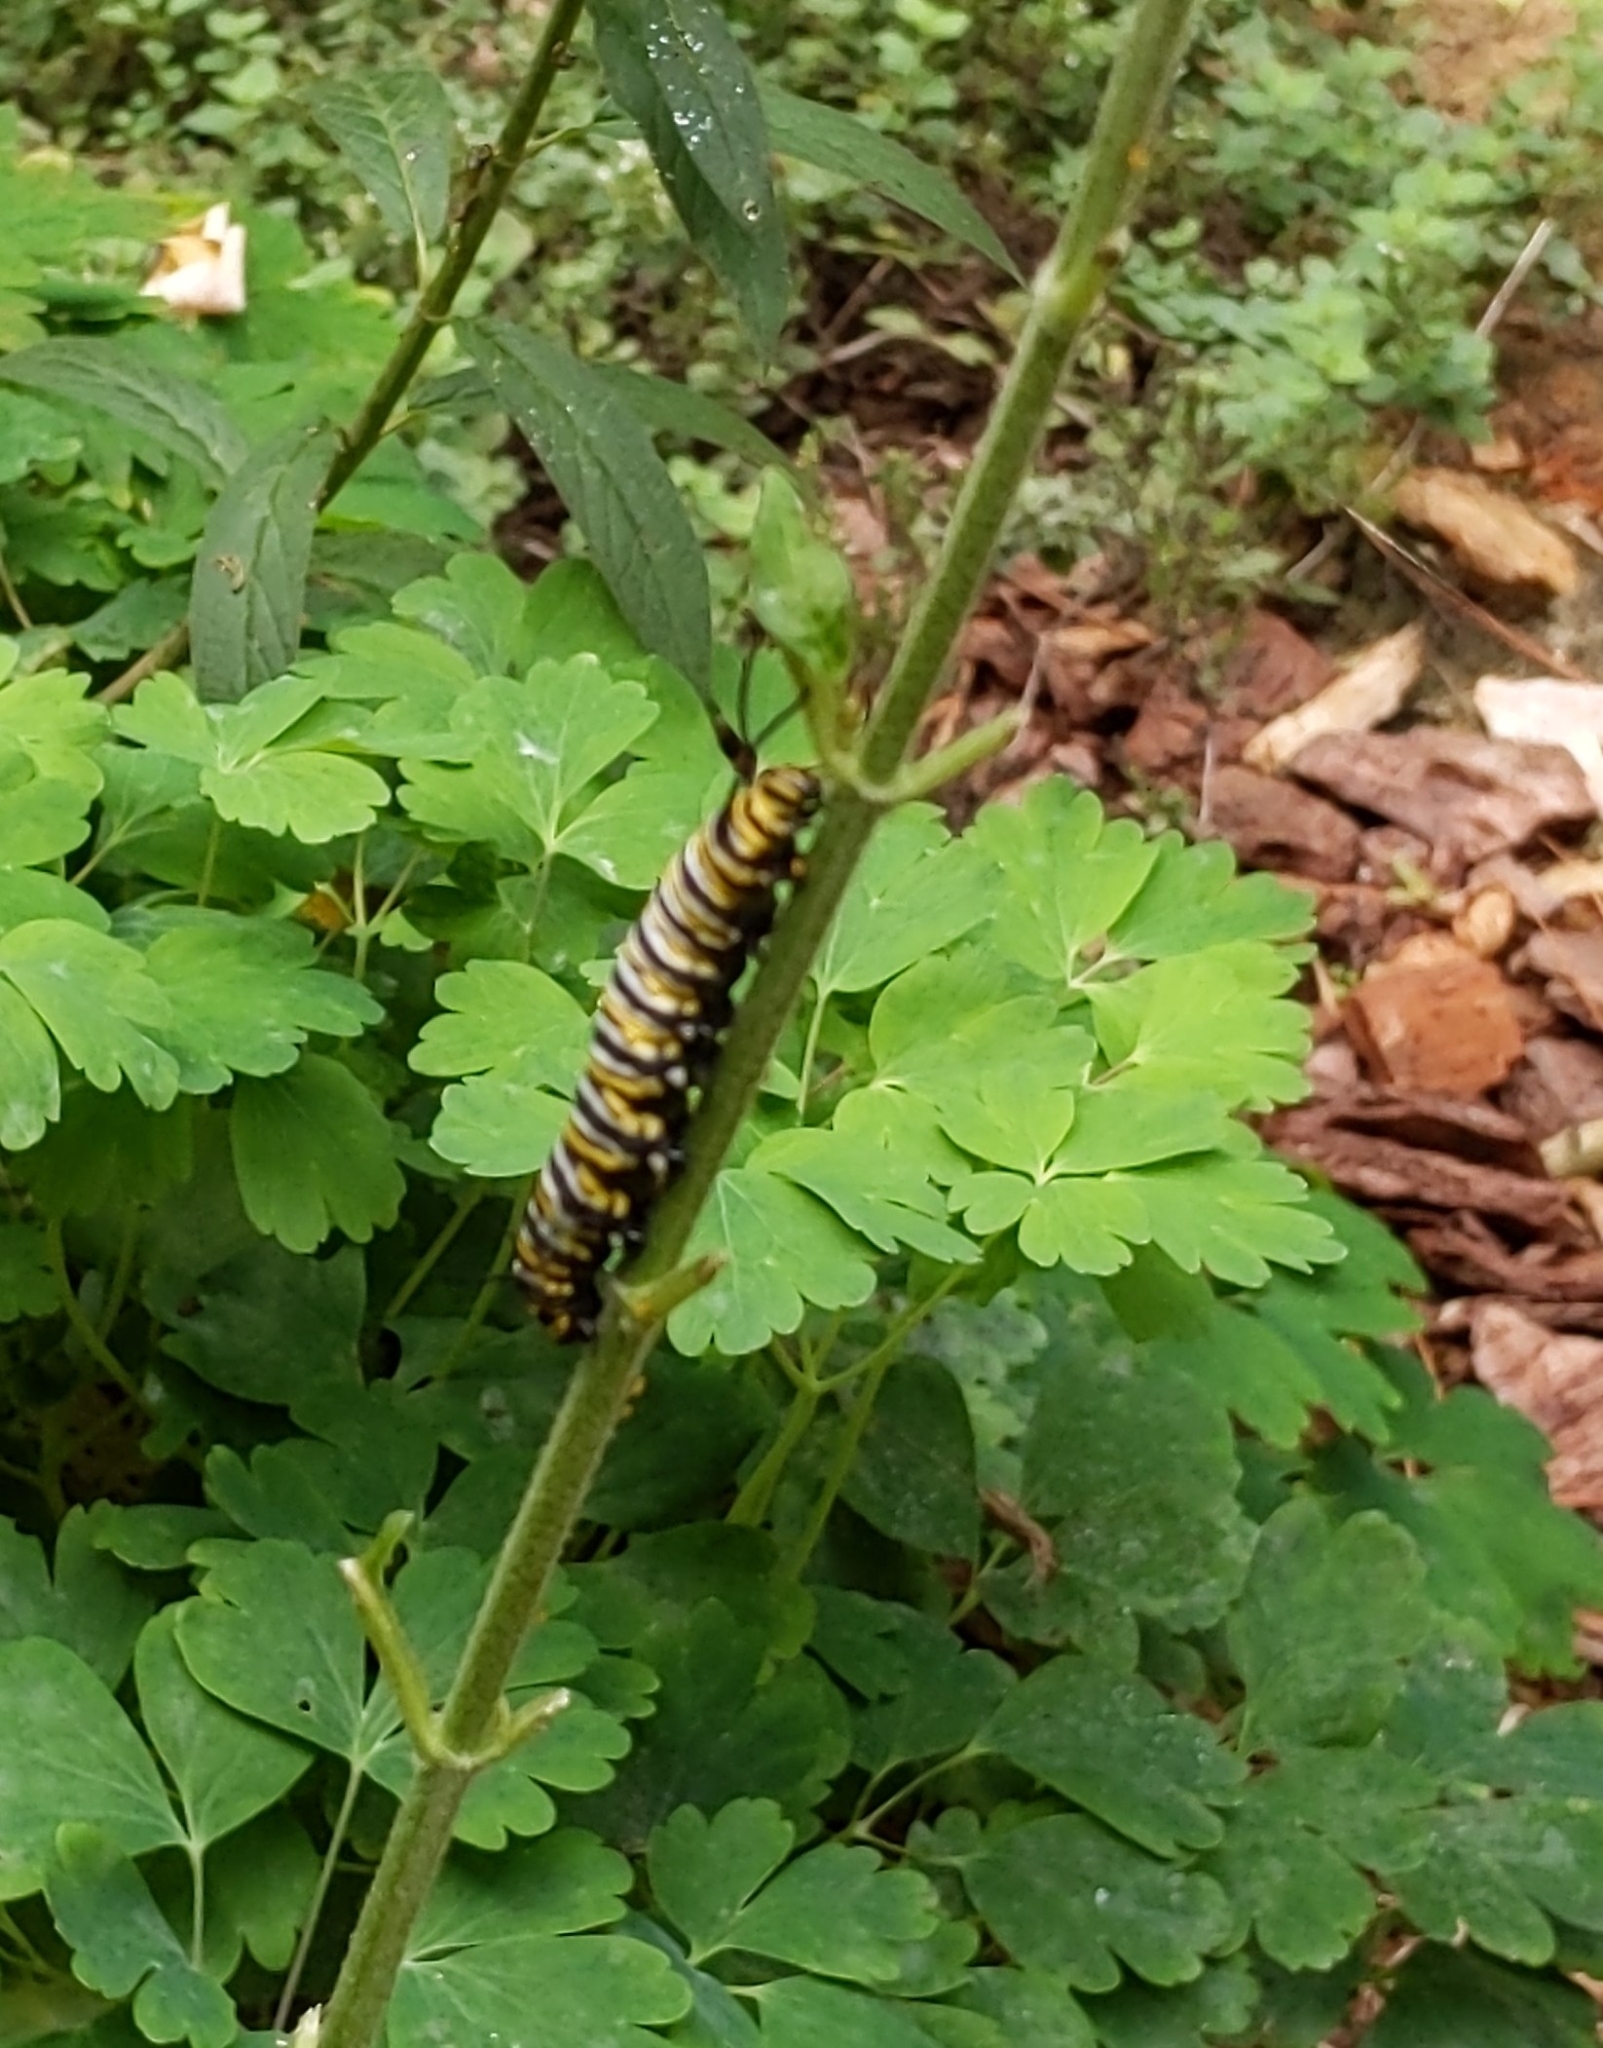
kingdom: Animalia
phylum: Arthropoda
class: Insecta
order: Lepidoptera
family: Nymphalidae
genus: Danaus
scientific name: Danaus plexippus
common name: Monarch
